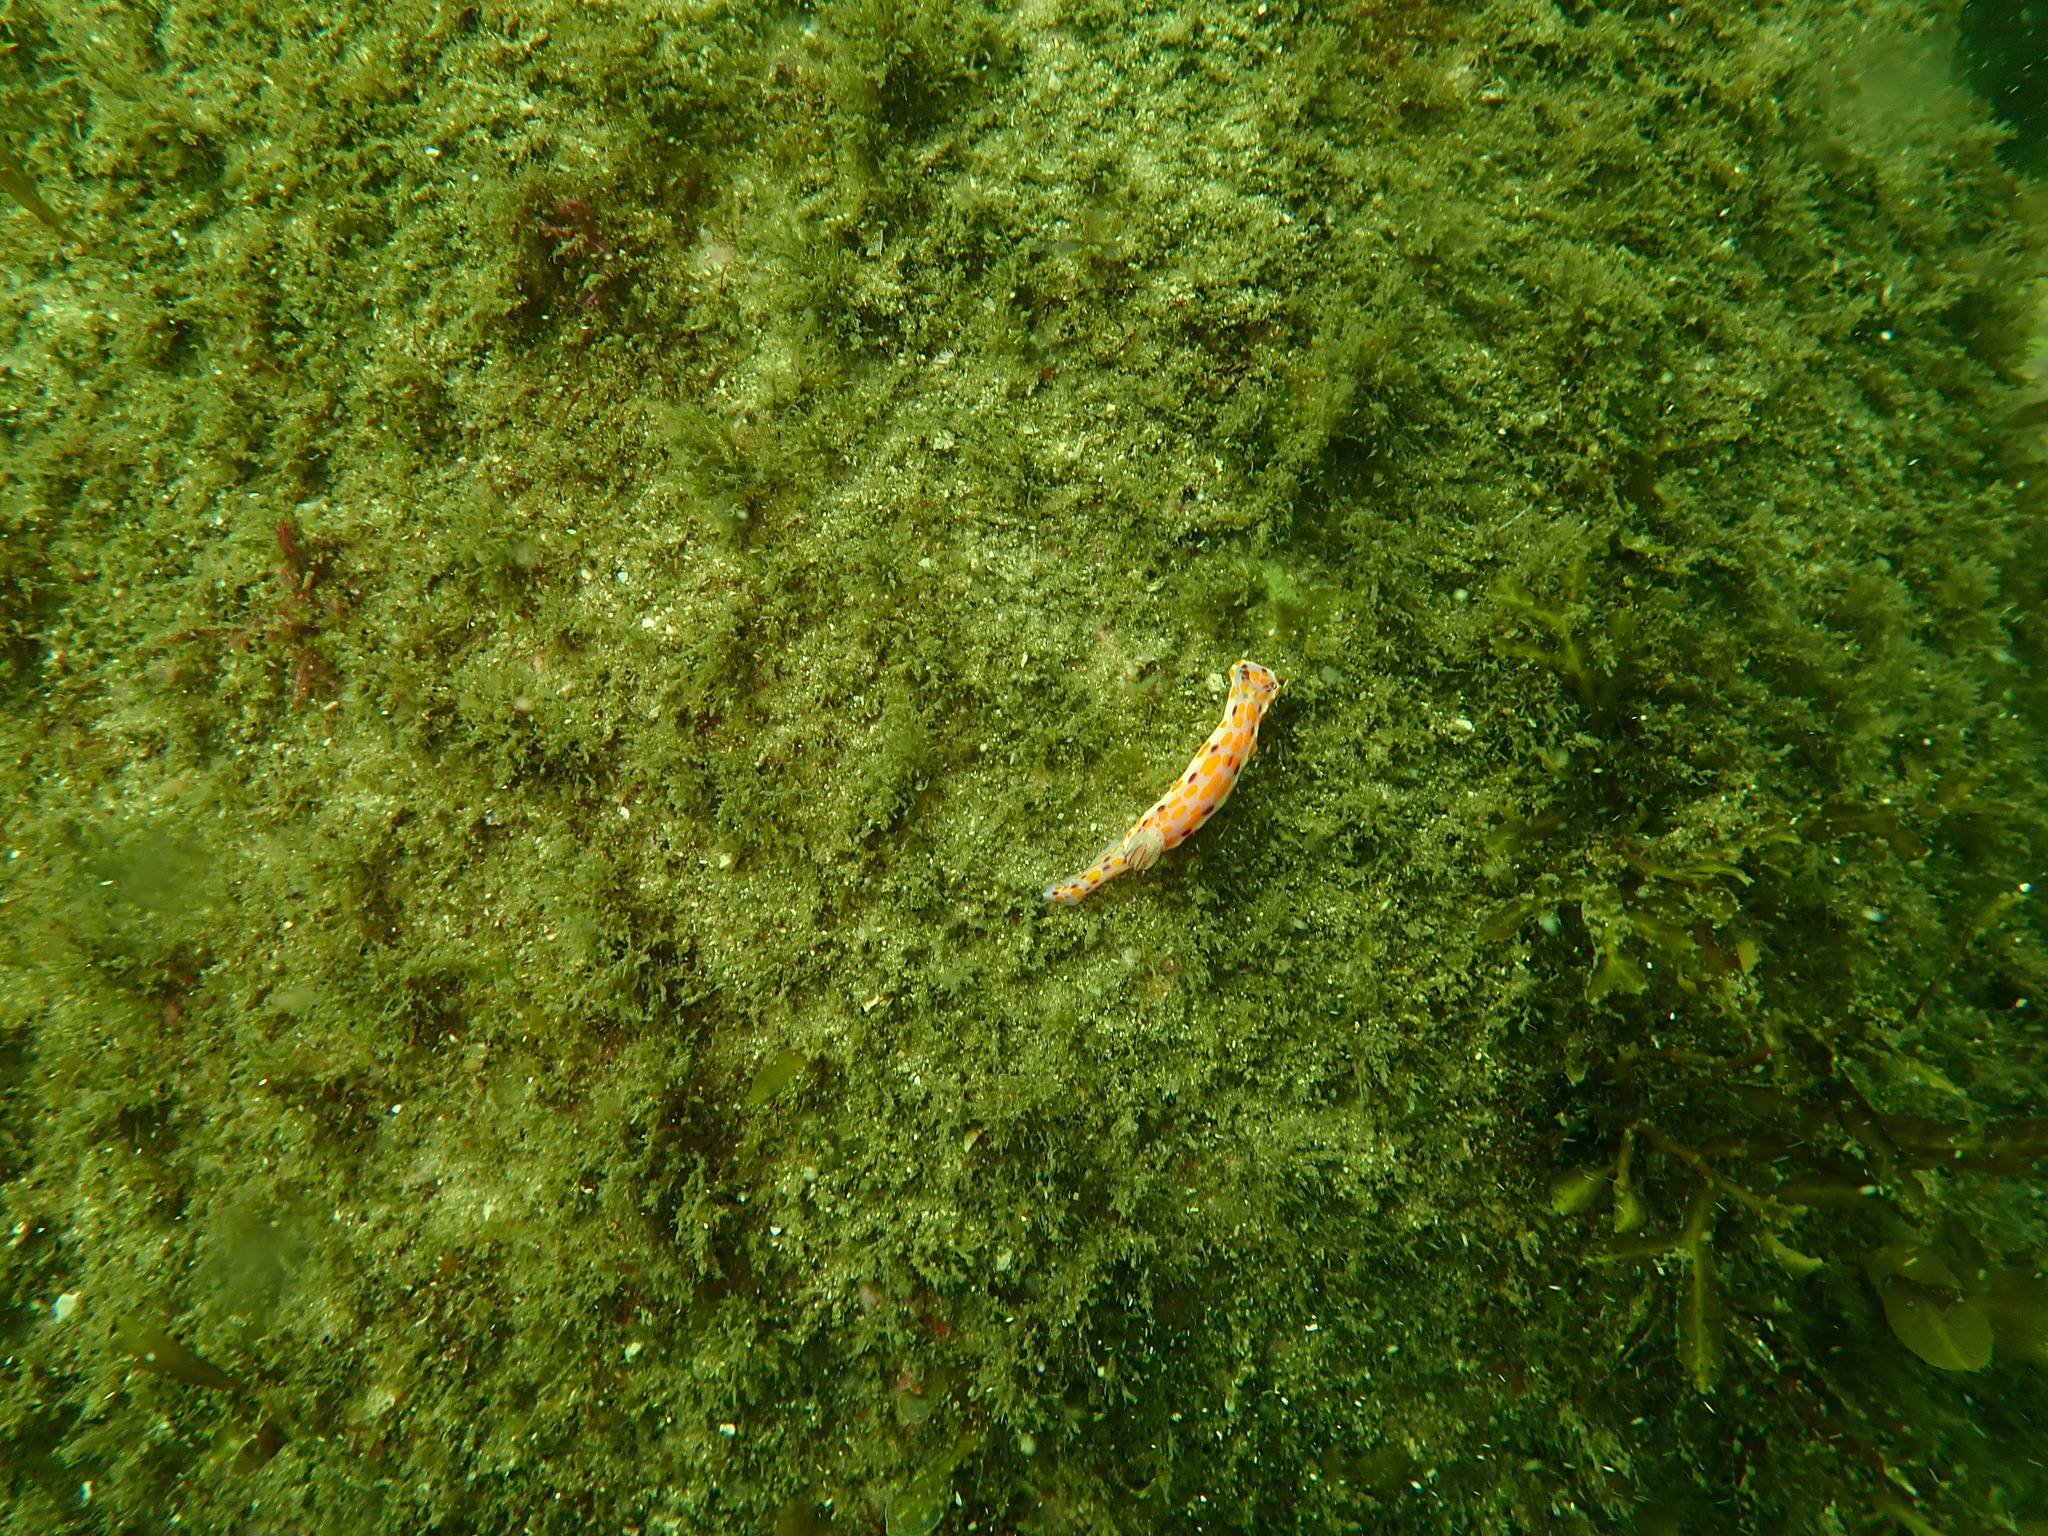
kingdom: Animalia
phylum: Mollusca
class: Gastropoda
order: Nudibranchia
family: Chromodorididae
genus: Ceratosoma
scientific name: Ceratosoma amoenum
